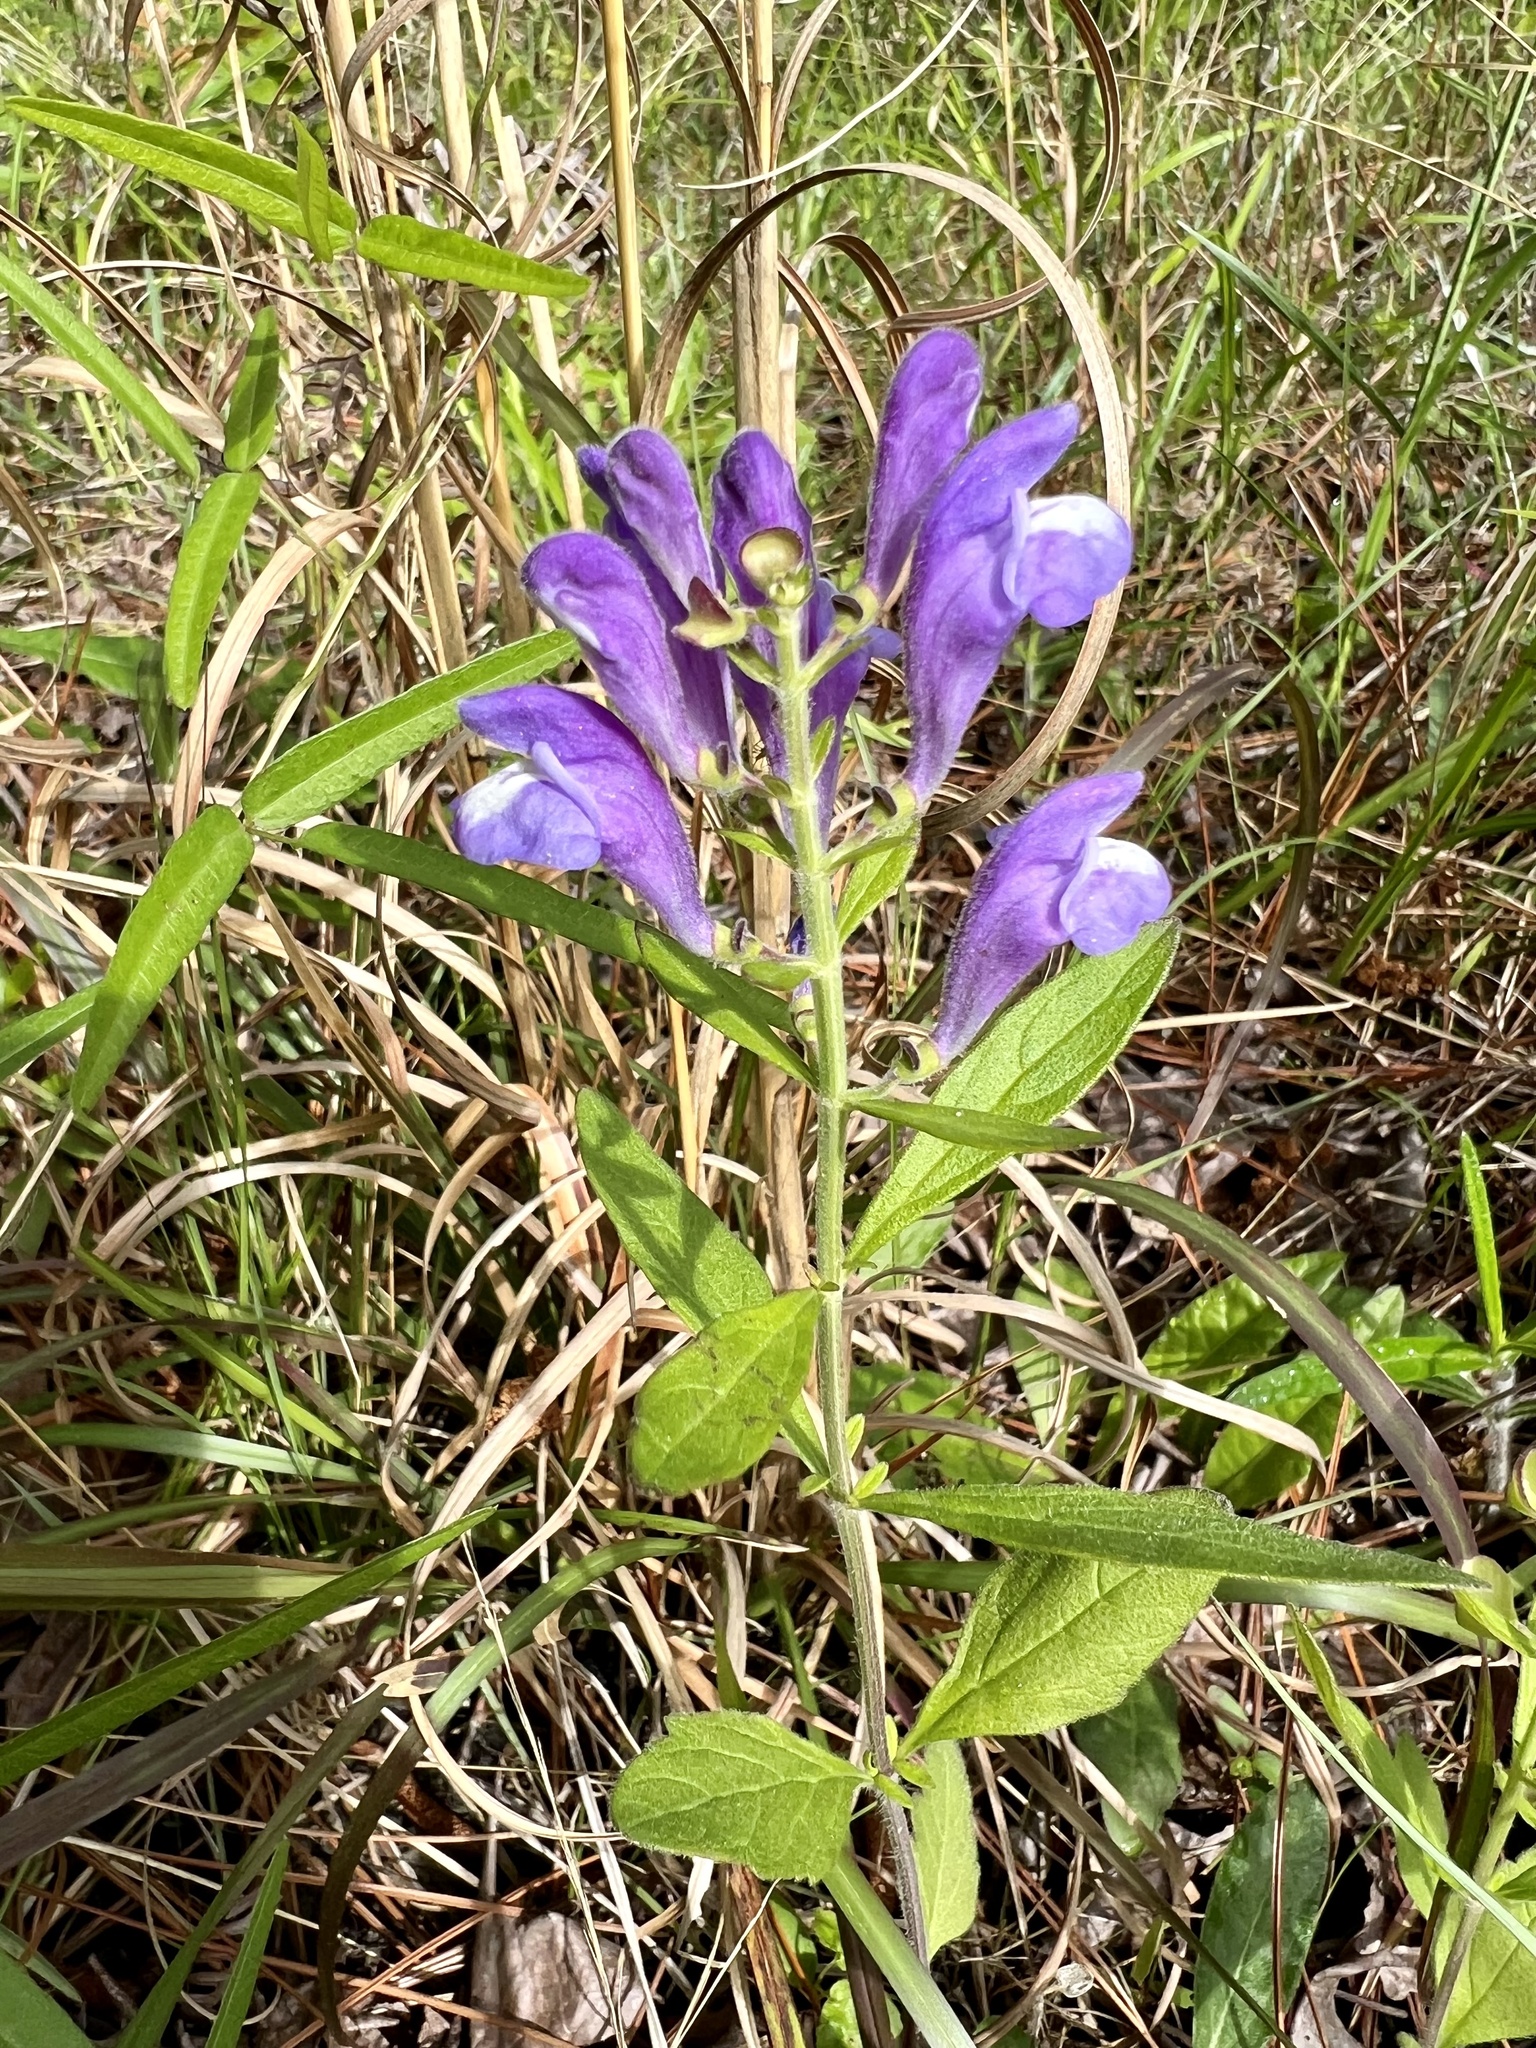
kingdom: Plantae
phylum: Tracheophyta
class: Magnoliopsida
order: Lamiales
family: Lamiaceae
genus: Scutellaria
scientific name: Scutellaria integrifolia
